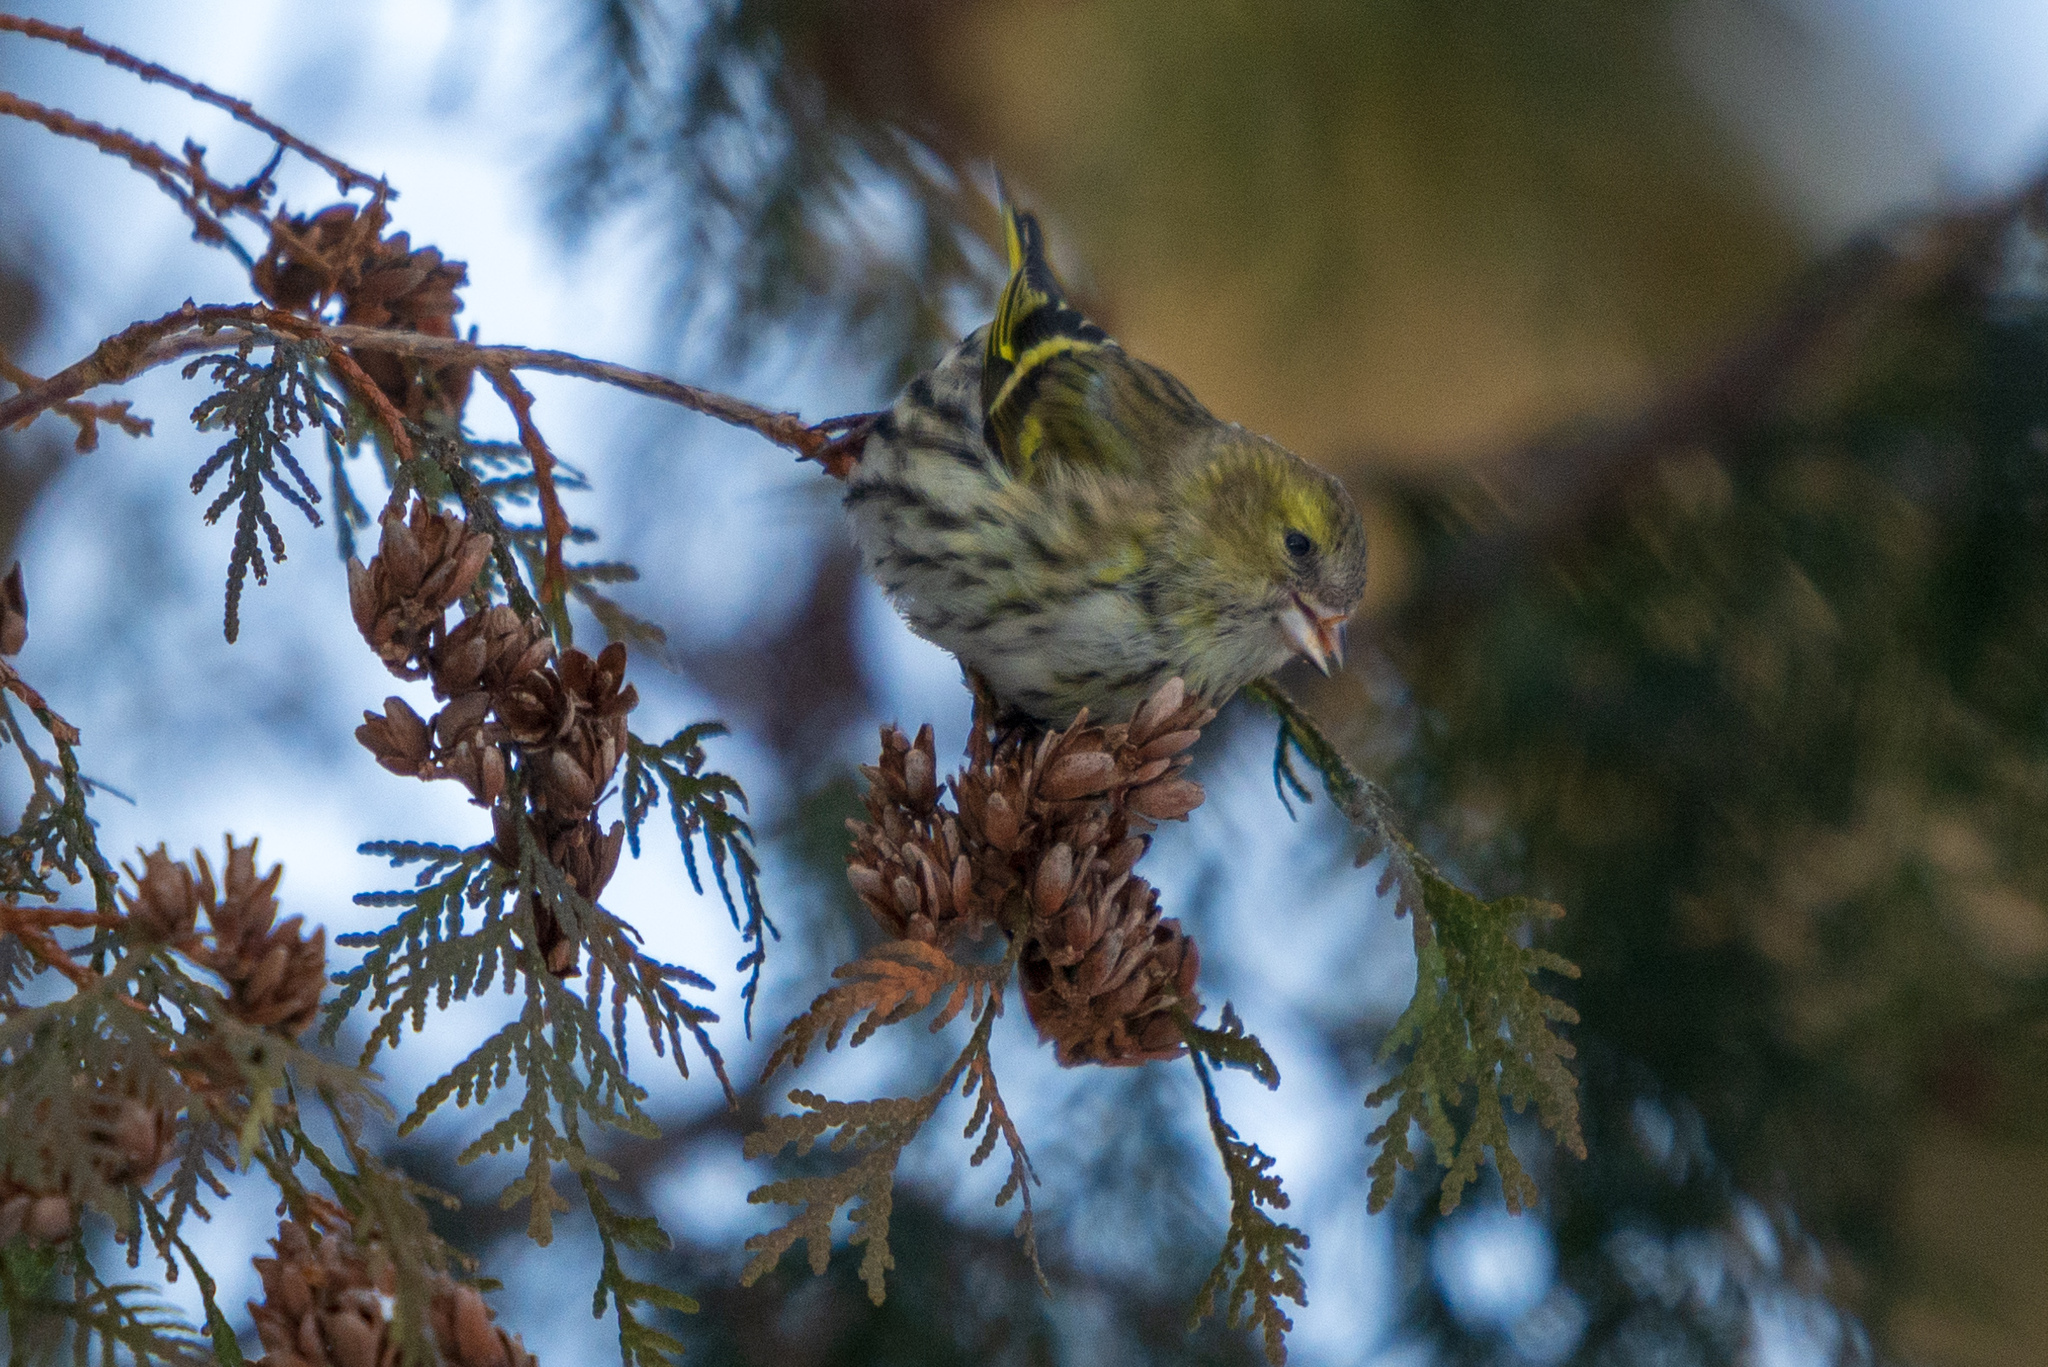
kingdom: Animalia
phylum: Chordata
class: Aves
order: Passeriformes
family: Fringillidae
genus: Spinus
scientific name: Spinus spinus
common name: Eurasian siskin
